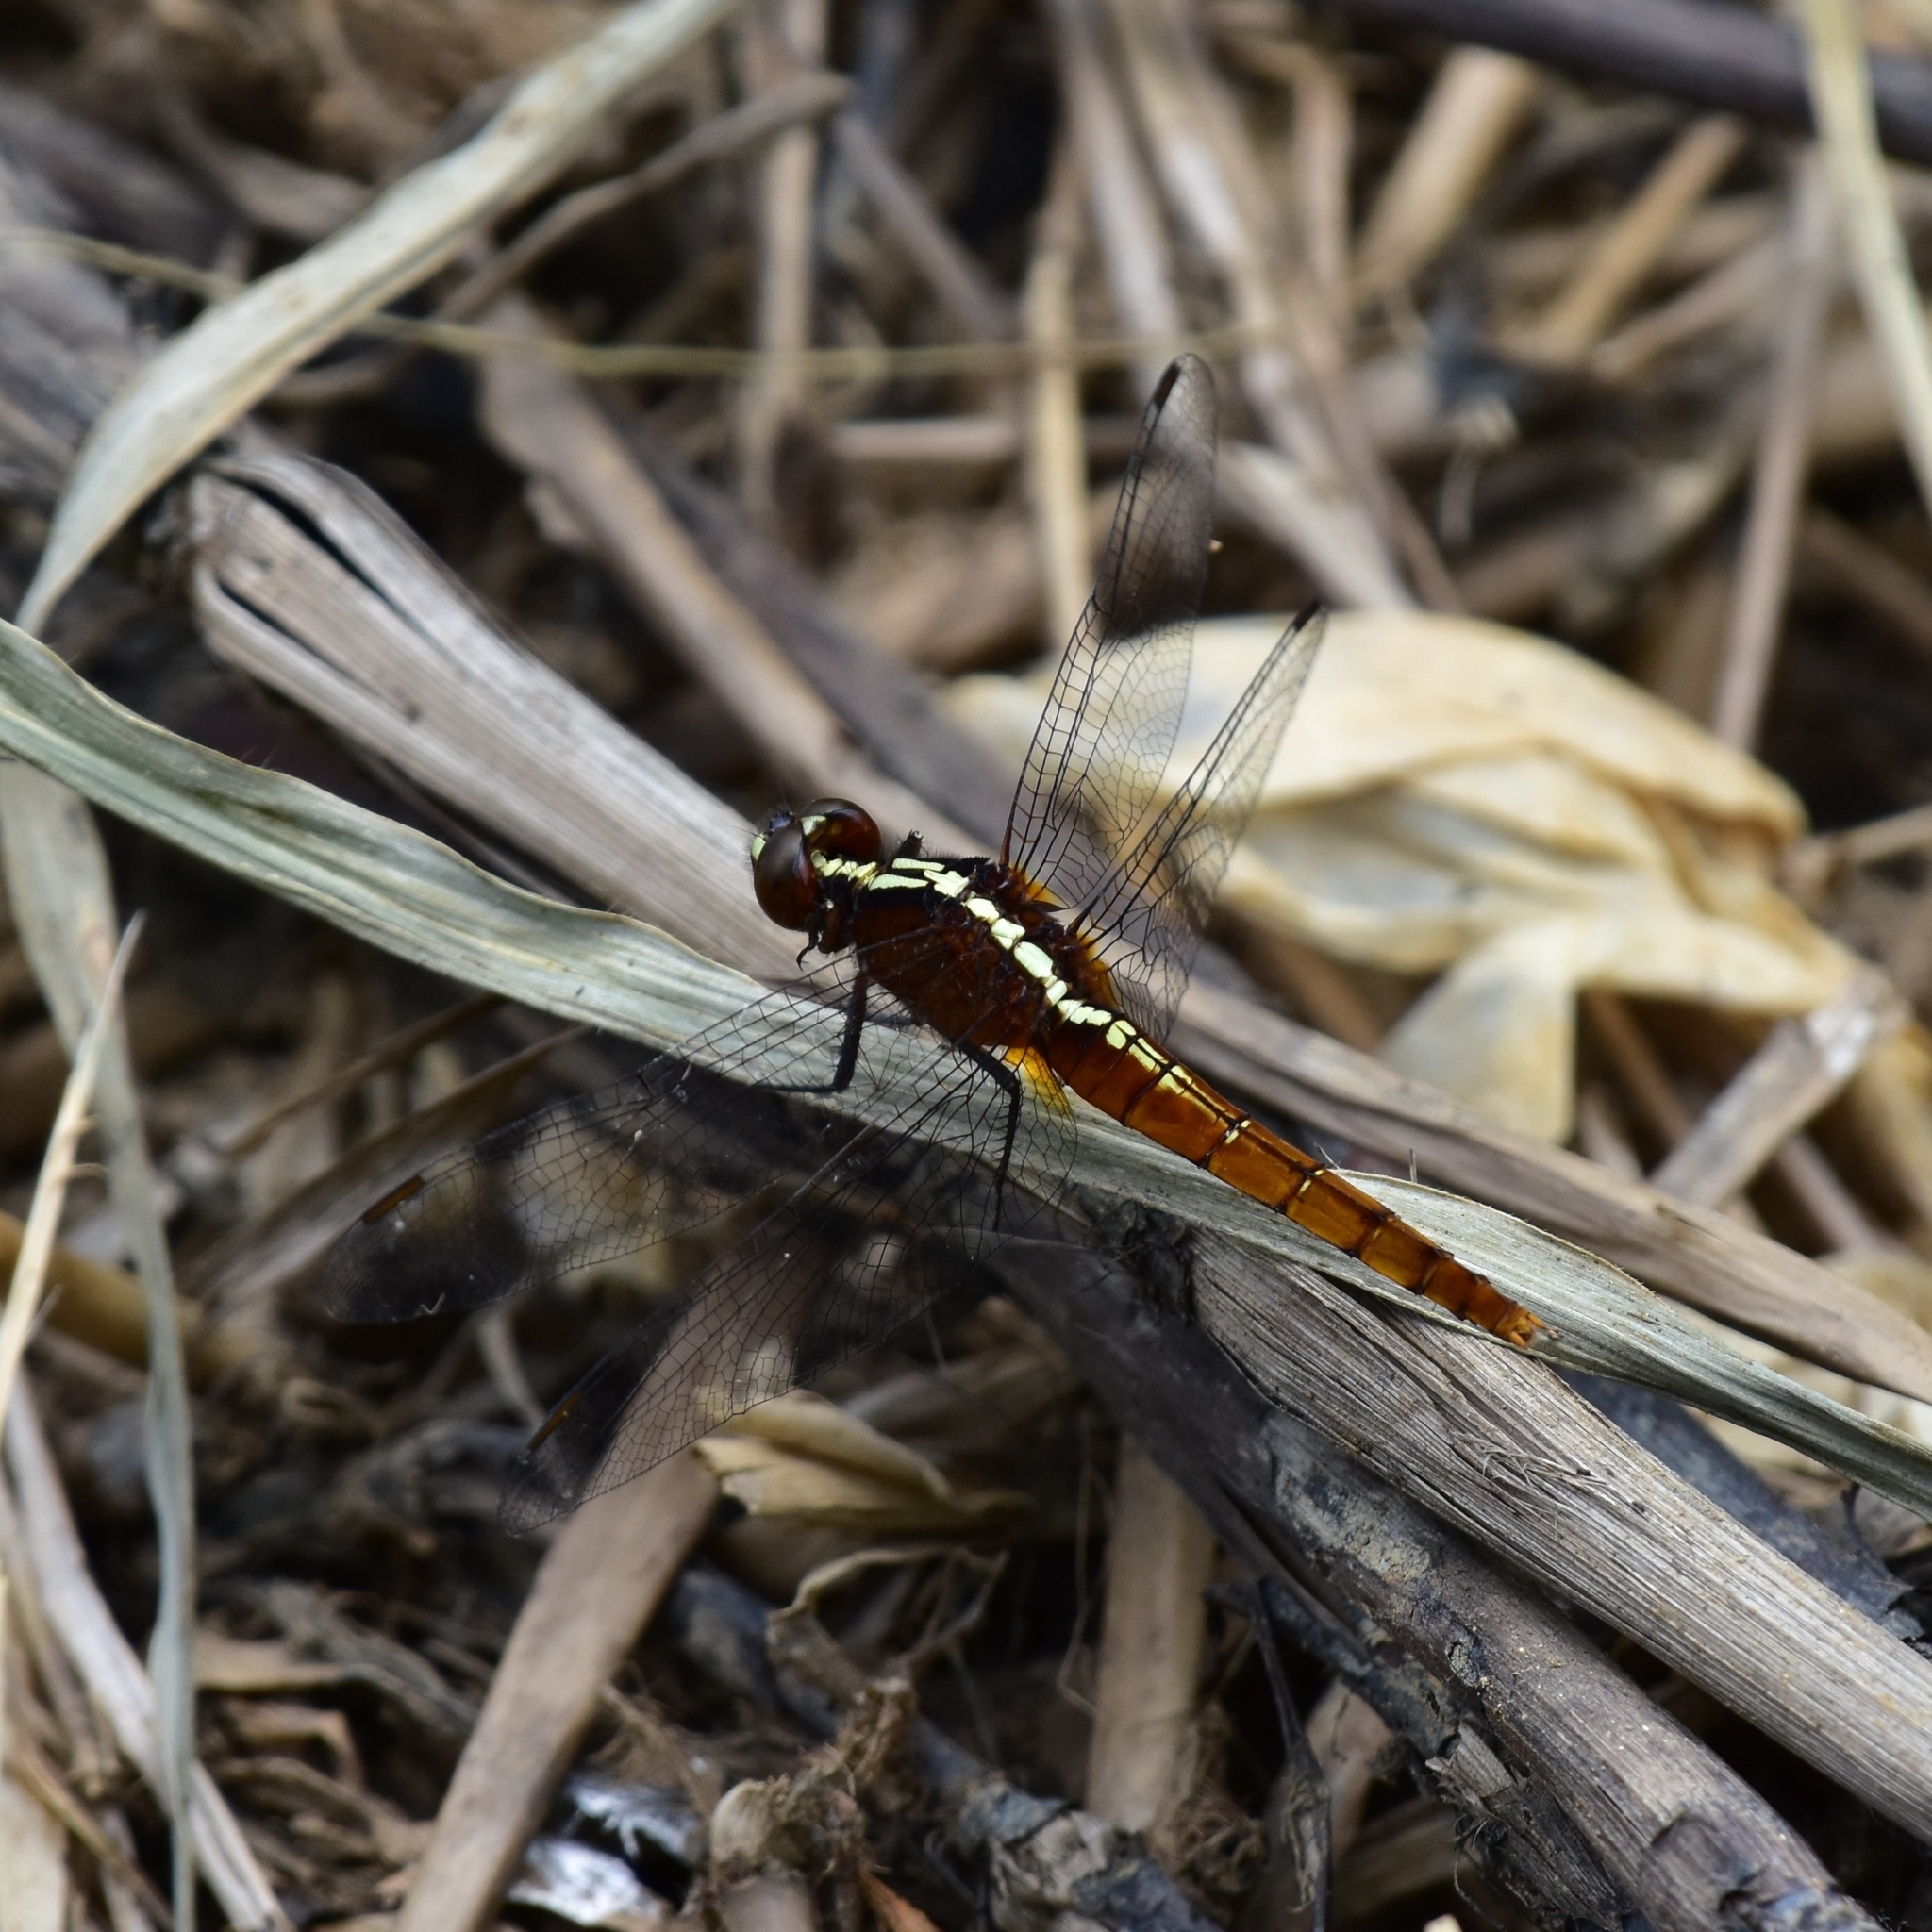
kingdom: Animalia
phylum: Arthropoda
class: Insecta
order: Odonata
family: Libellulidae
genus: Rhodothemis
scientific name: Rhodothemis rufa
